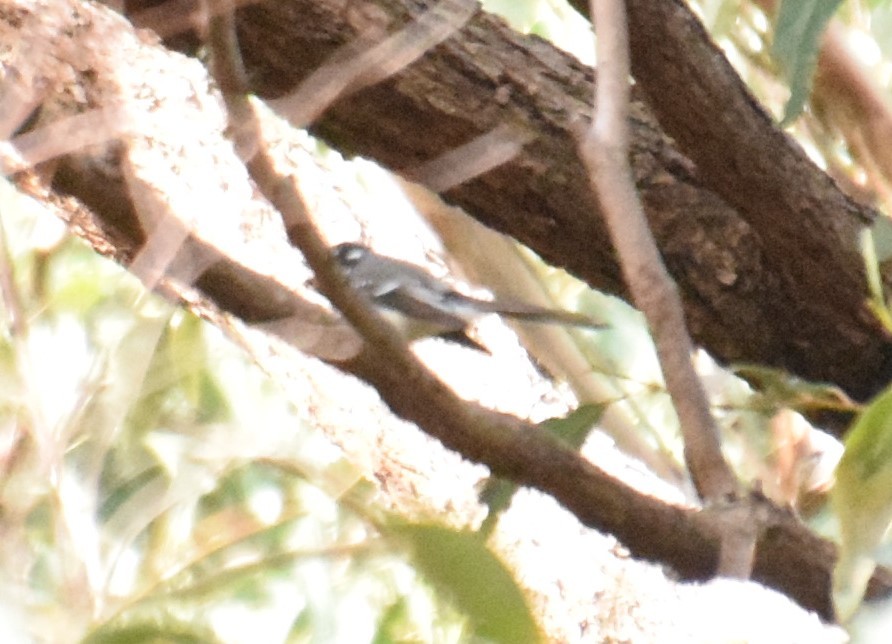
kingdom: Animalia
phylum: Chordata
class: Aves
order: Passeriformes
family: Rhipiduridae
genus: Rhipidura
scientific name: Rhipidura albiscapa
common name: Grey fantail
